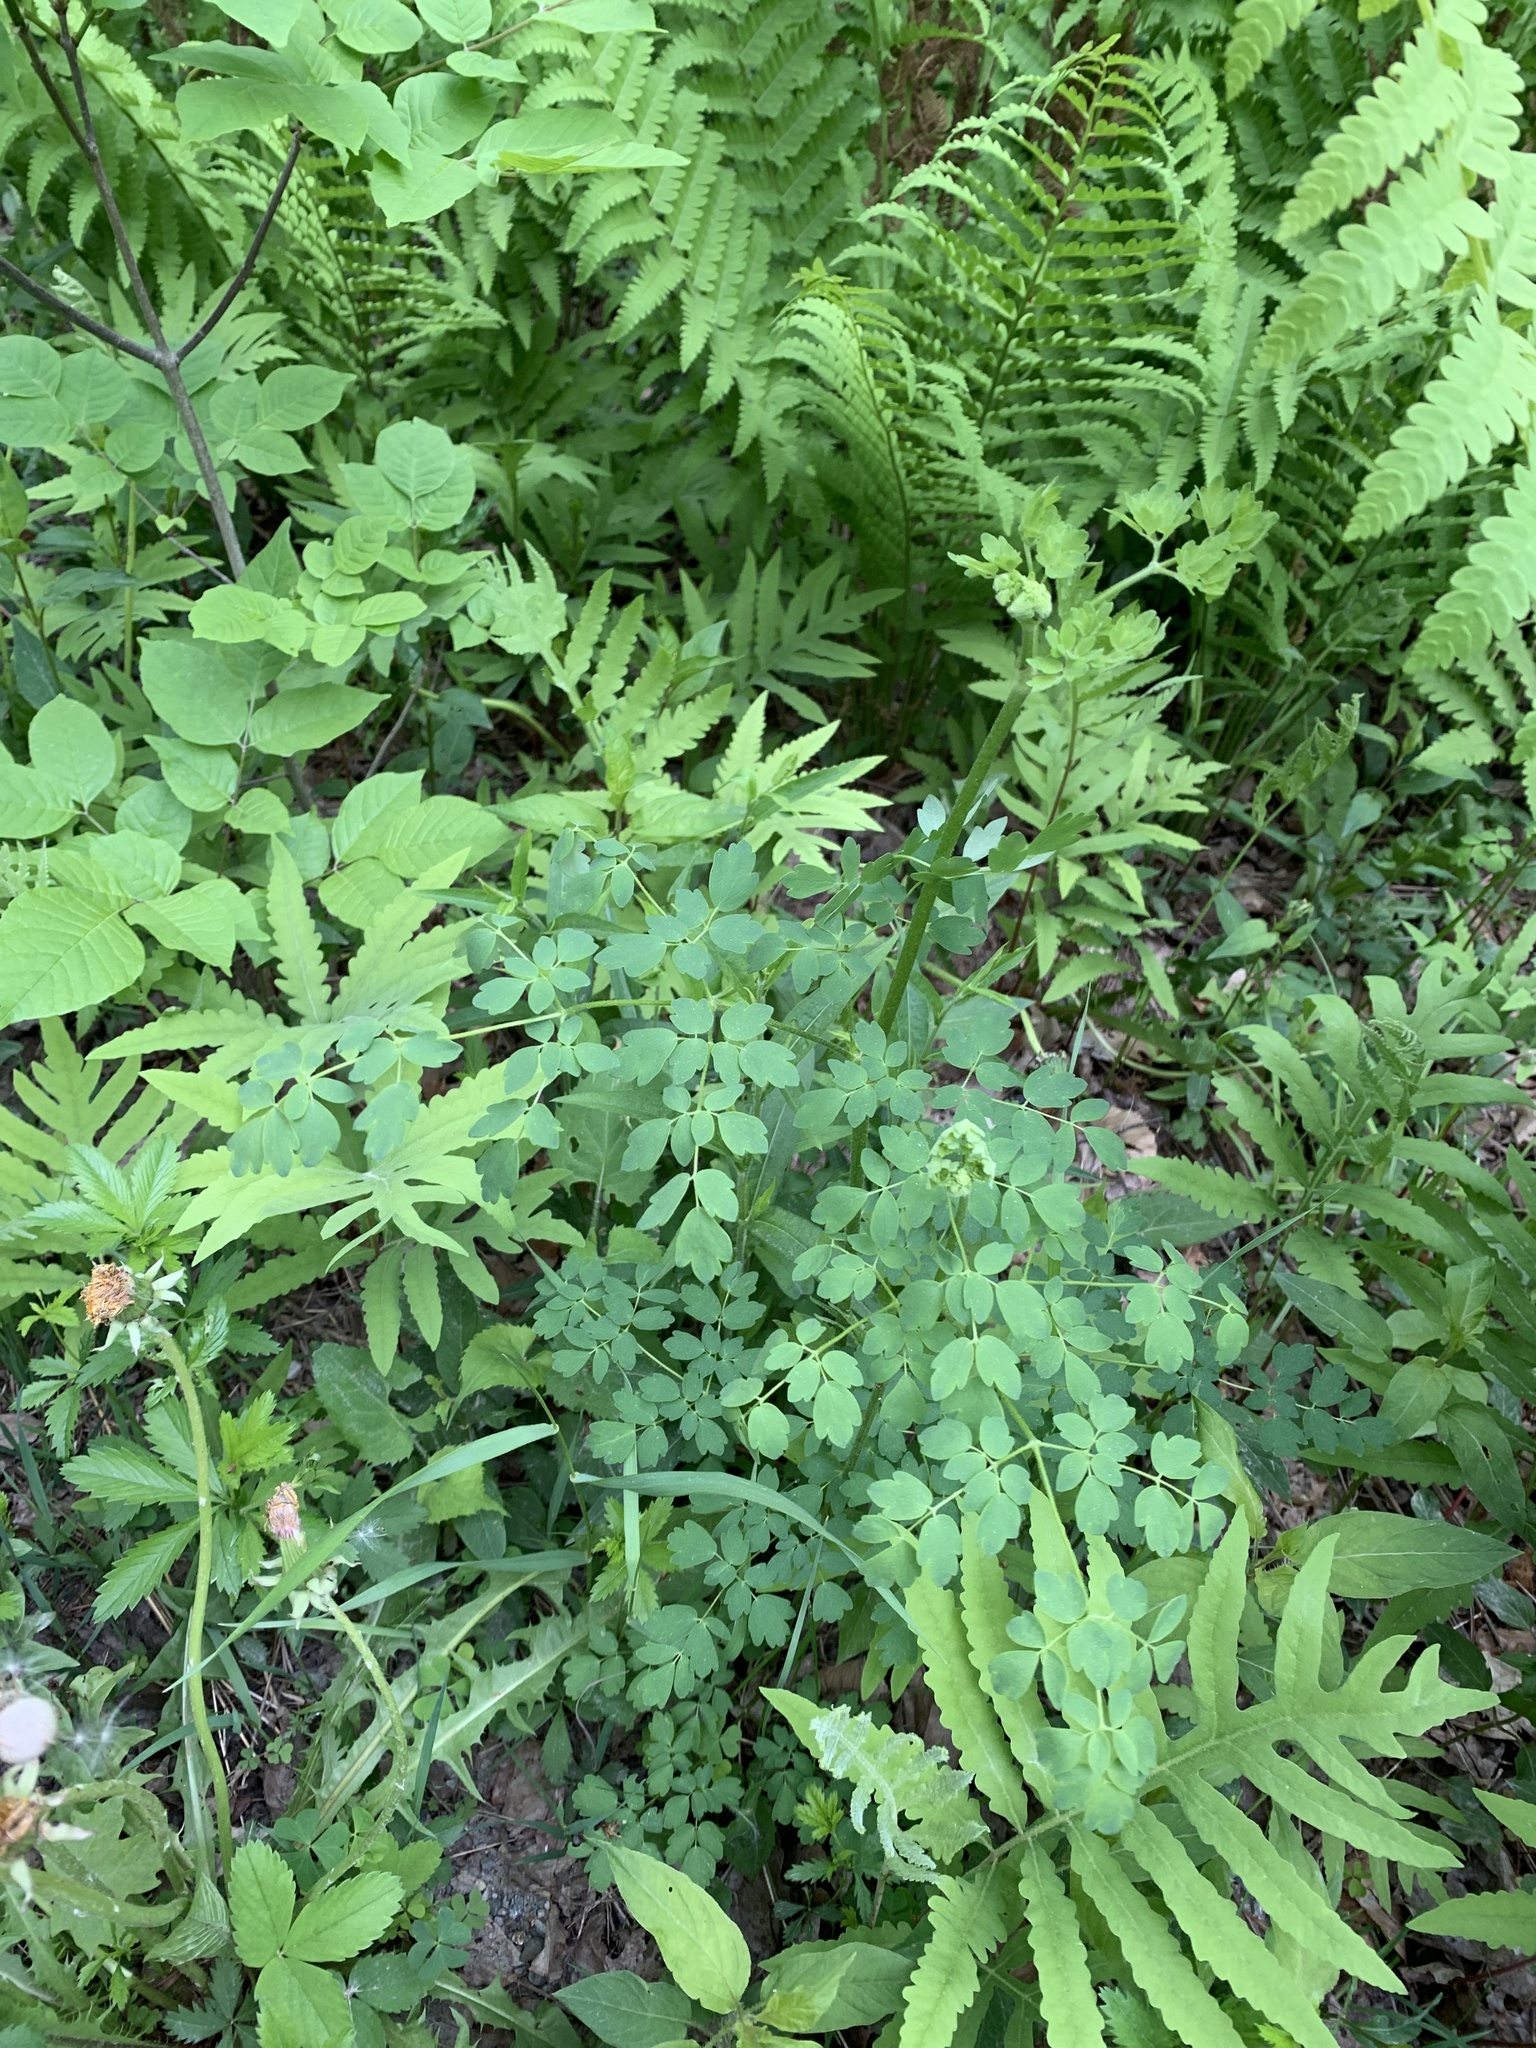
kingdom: Plantae
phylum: Tracheophyta
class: Magnoliopsida
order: Ranunculales
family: Ranunculaceae
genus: Thalictrum
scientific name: Thalictrum pubescens
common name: King-of-the-meadow
